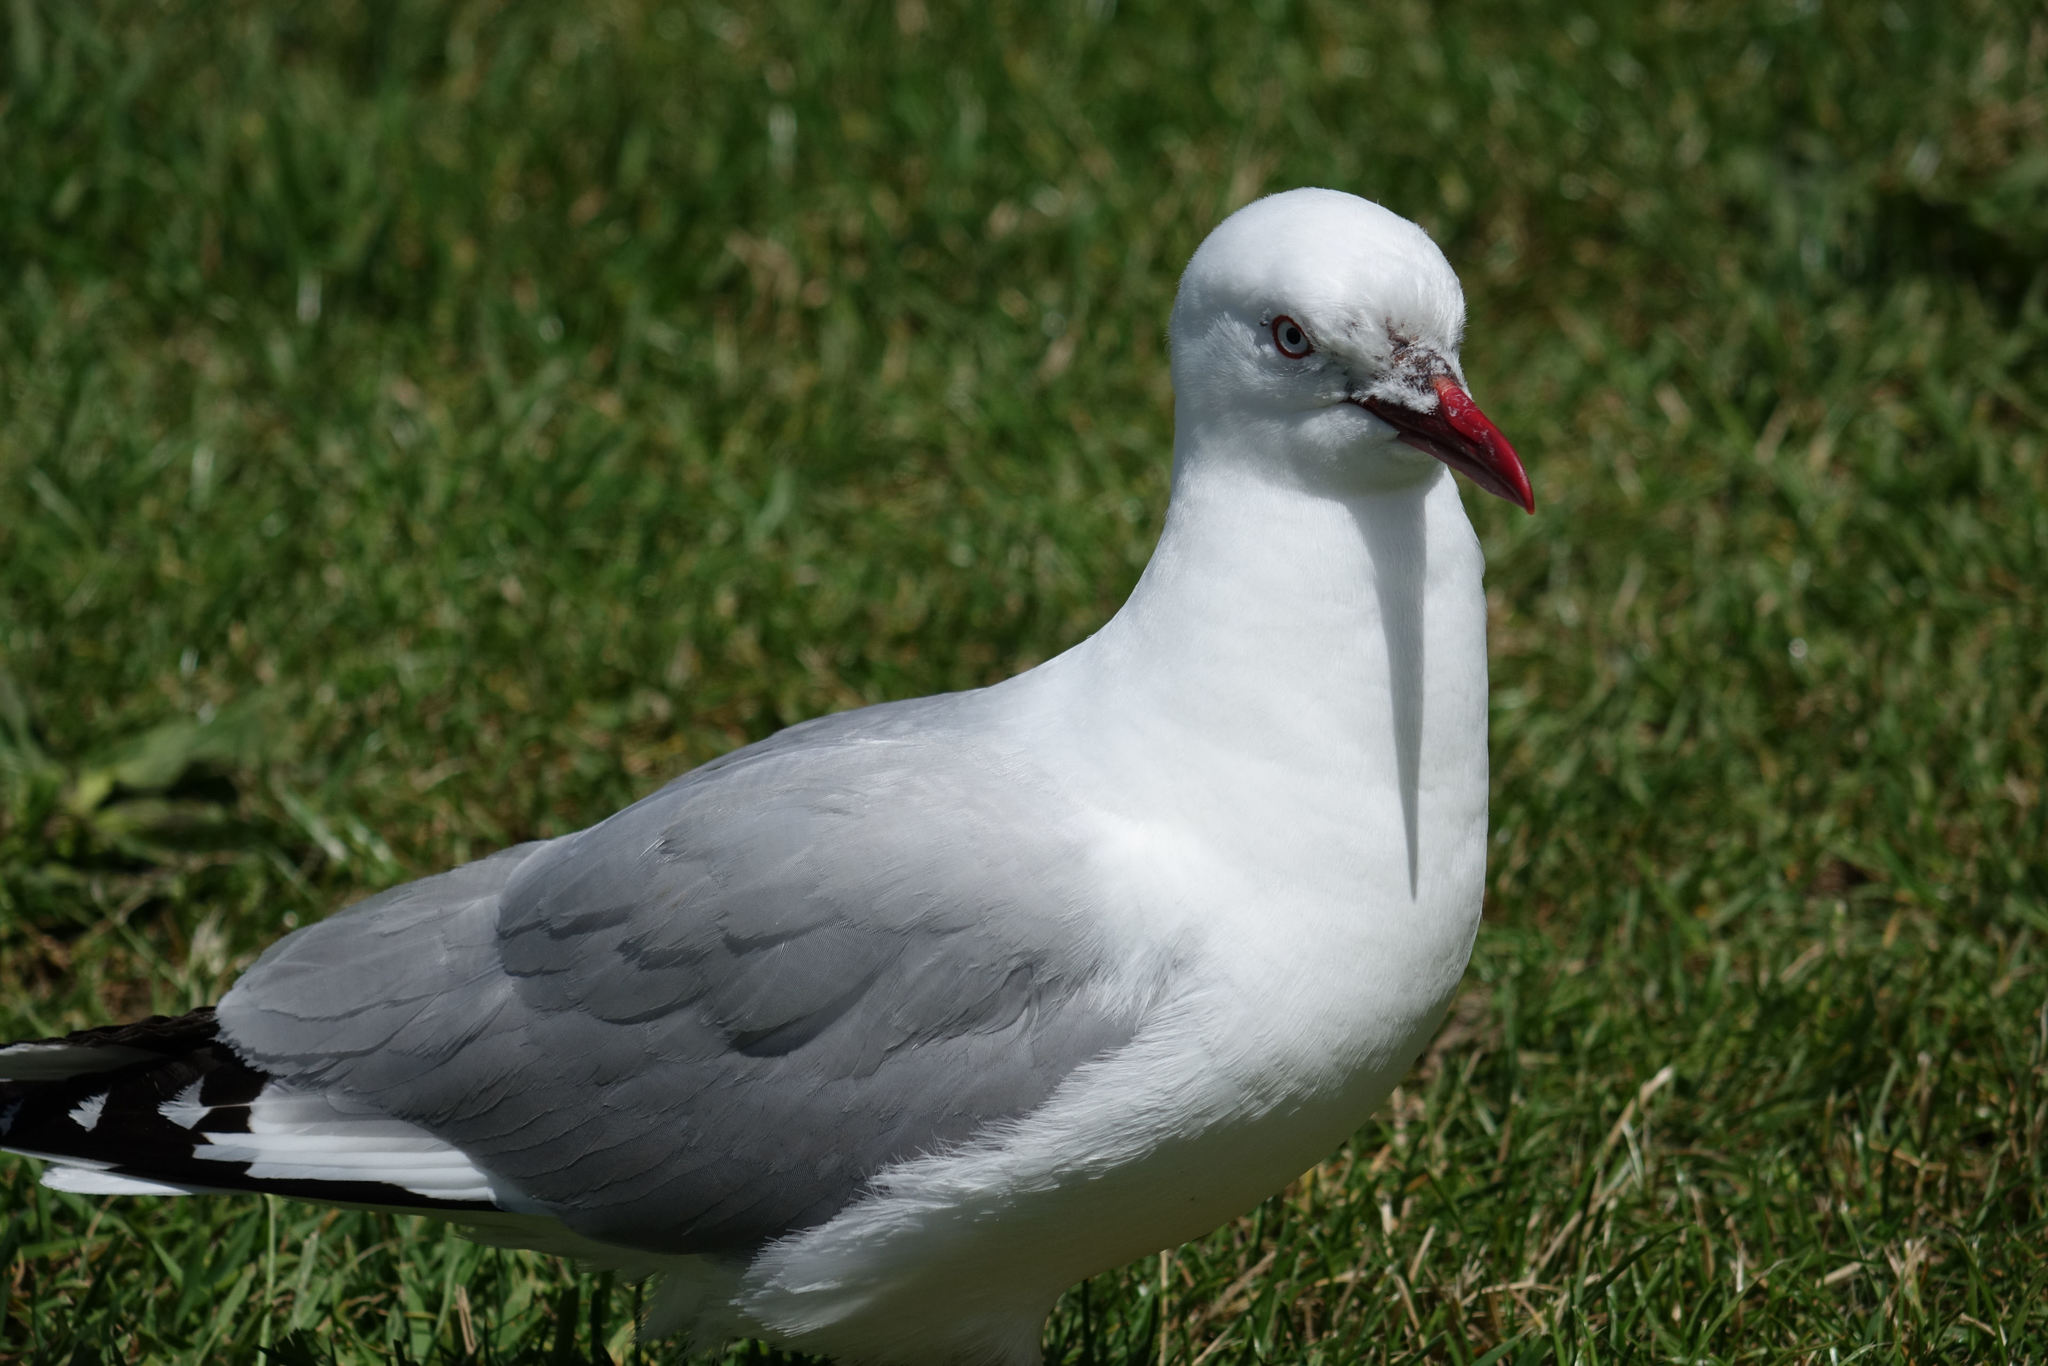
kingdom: Animalia
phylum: Chordata
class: Aves
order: Charadriiformes
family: Laridae
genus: Chroicocephalus
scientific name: Chroicocephalus novaehollandiae
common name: Silver gull
